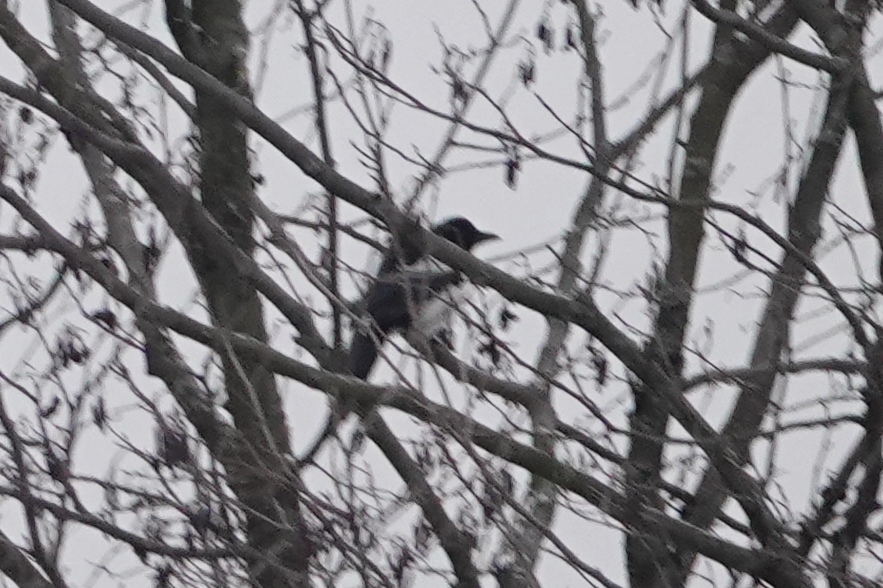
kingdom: Animalia
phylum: Chordata
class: Aves
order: Passeriformes
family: Corvidae
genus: Pica
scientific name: Pica pica
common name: Eurasian magpie
